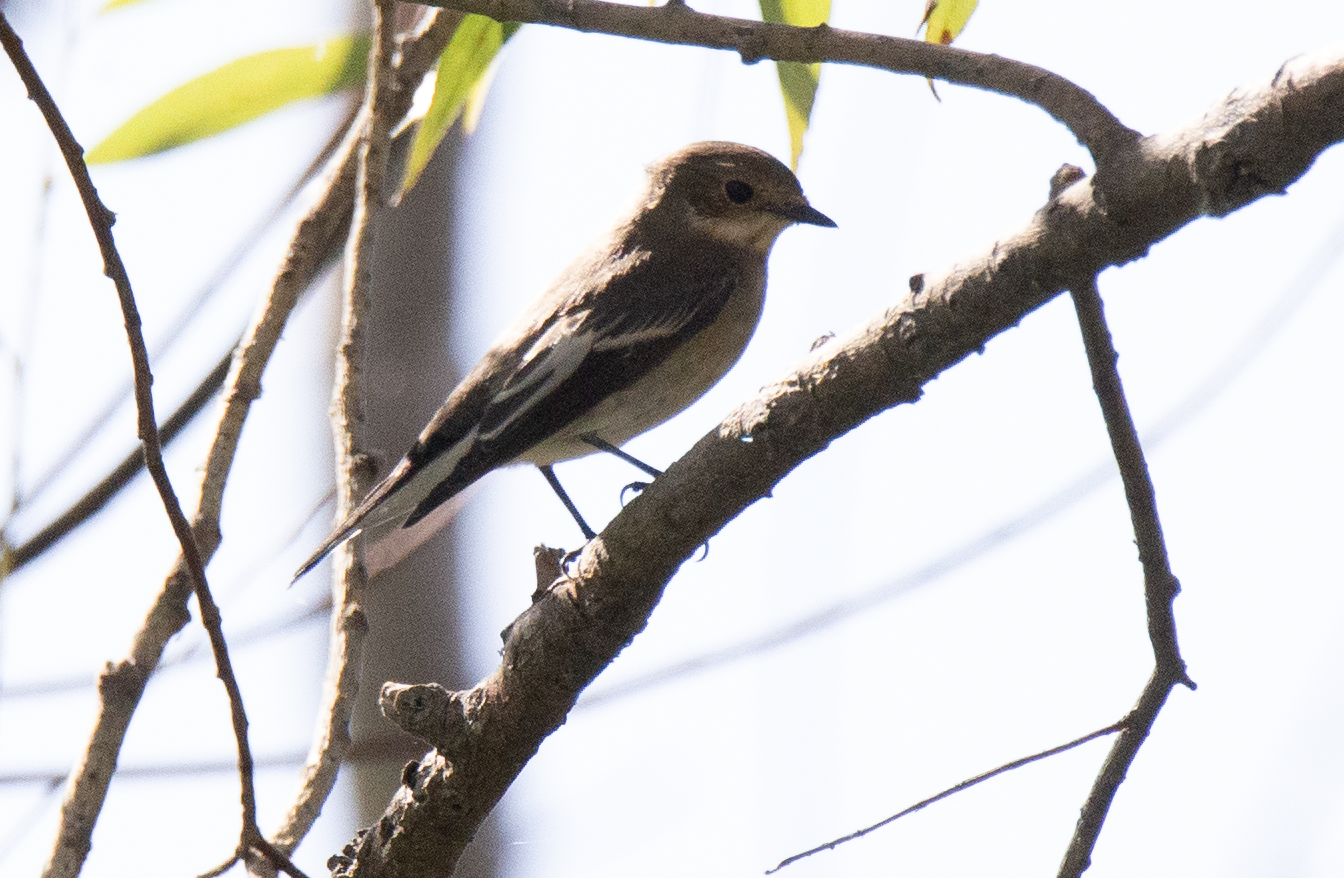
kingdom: Animalia
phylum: Chordata
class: Aves
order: Passeriformes
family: Muscicapidae
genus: Ficedula
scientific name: Ficedula hypoleuca
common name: European pied flycatcher
